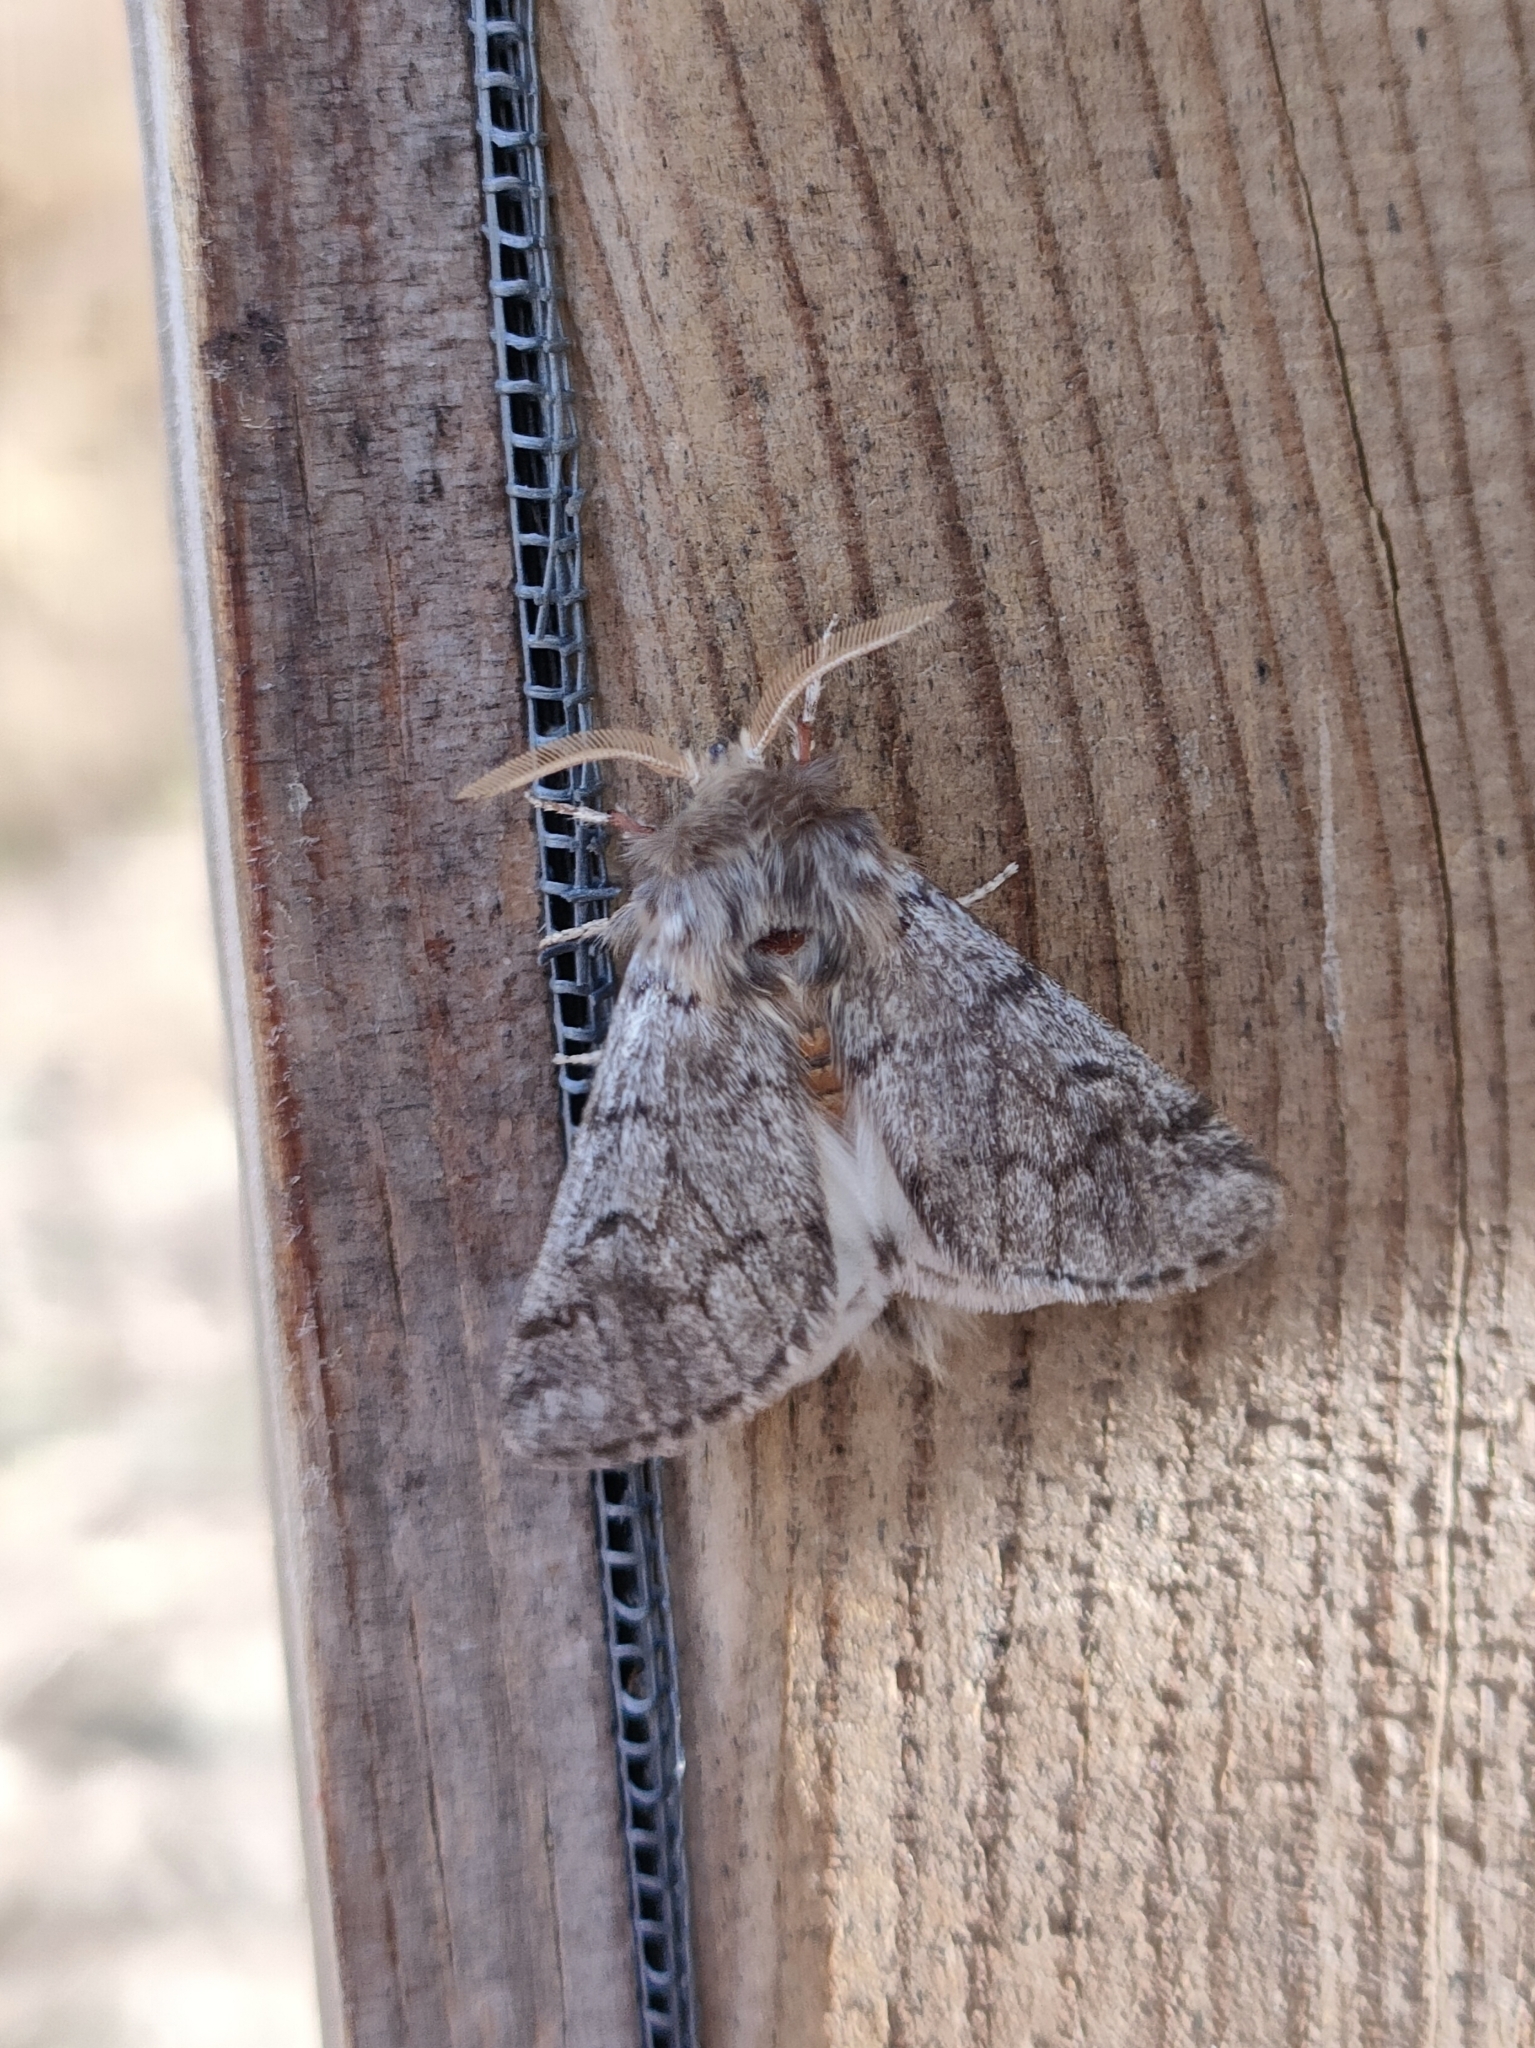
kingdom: Animalia
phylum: Arthropoda
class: Insecta
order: Lepidoptera
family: Notodontidae
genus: Thaumetopoea
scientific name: Thaumetopoea pityocampa
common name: Pine processionary
